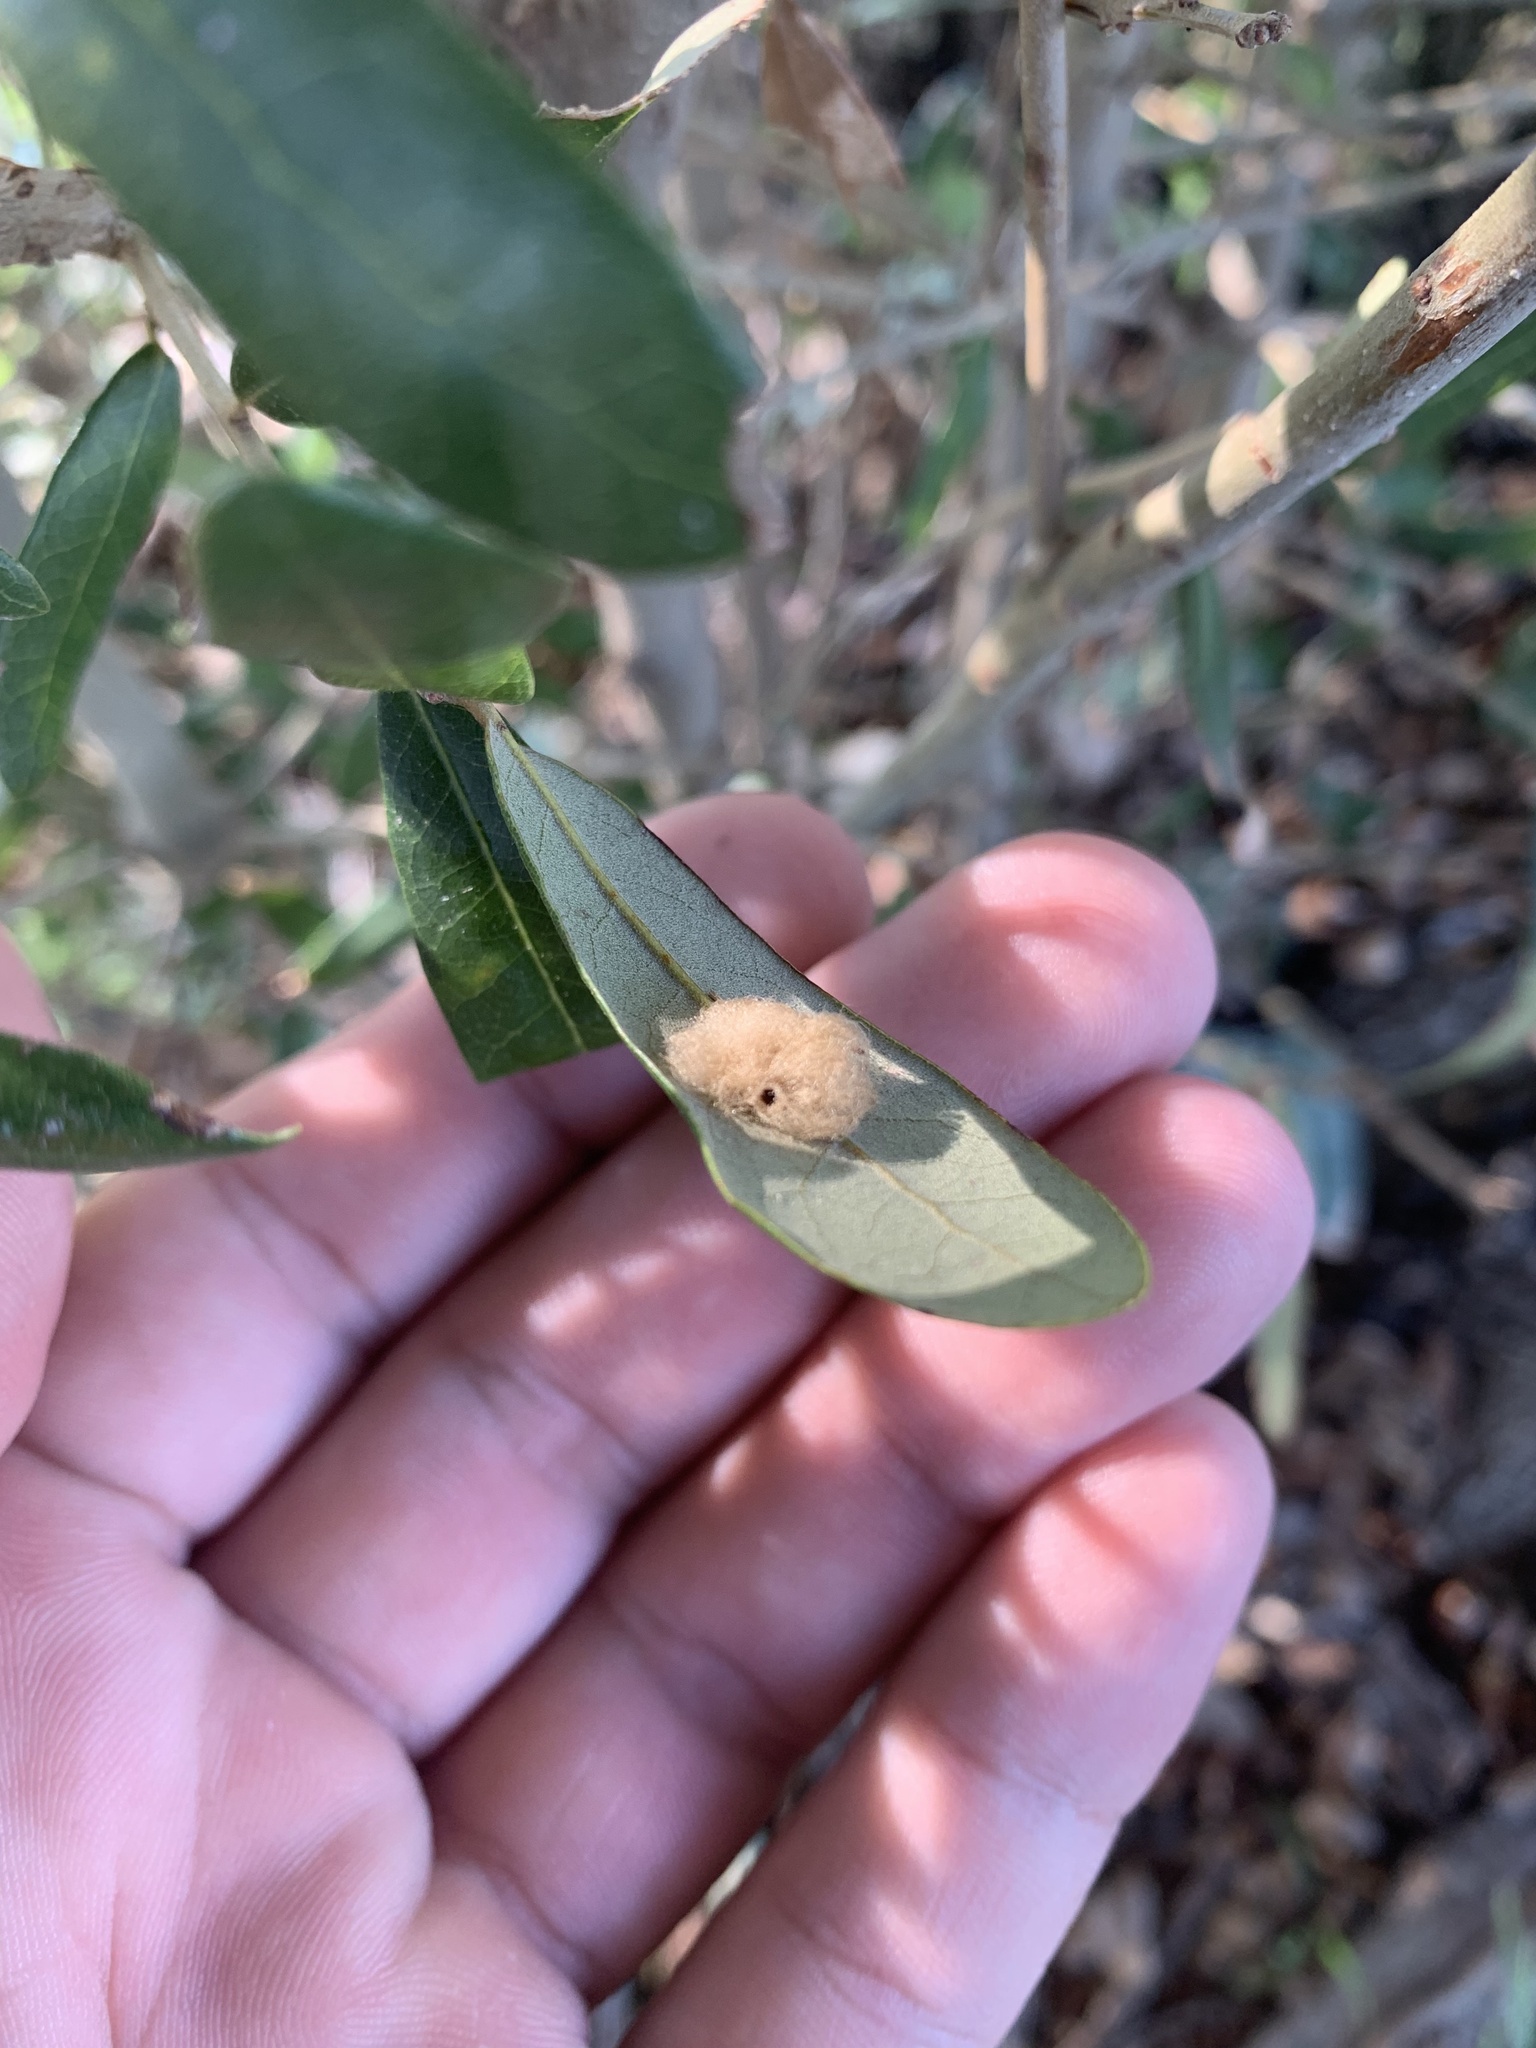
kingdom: Animalia
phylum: Arthropoda
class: Insecta
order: Hymenoptera
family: Cynipidae
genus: Andricus
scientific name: Andricus Druon quercuslanigerum
